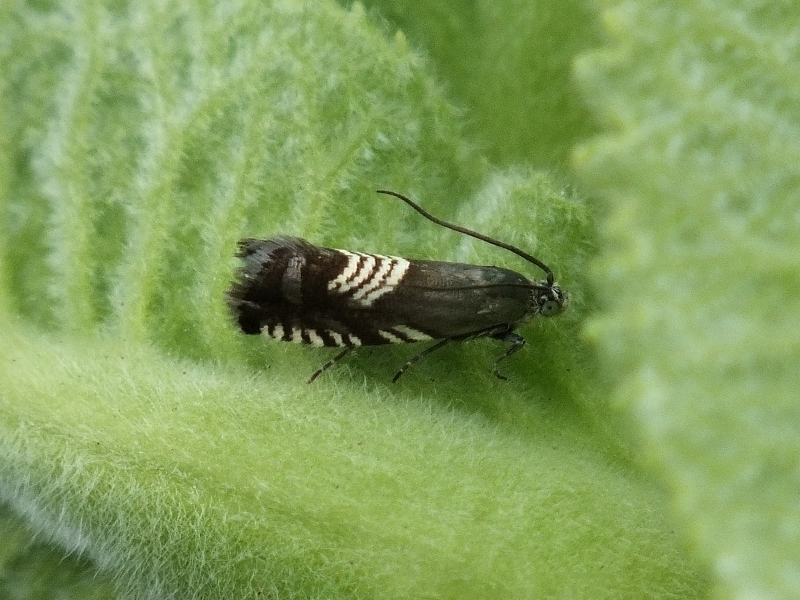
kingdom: Animalia
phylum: Arthropoda
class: Insecta
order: Lepidoptera
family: Tortricidae
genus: Grapholita
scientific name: Grapholita compositella
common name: Triple-stripe piercer
